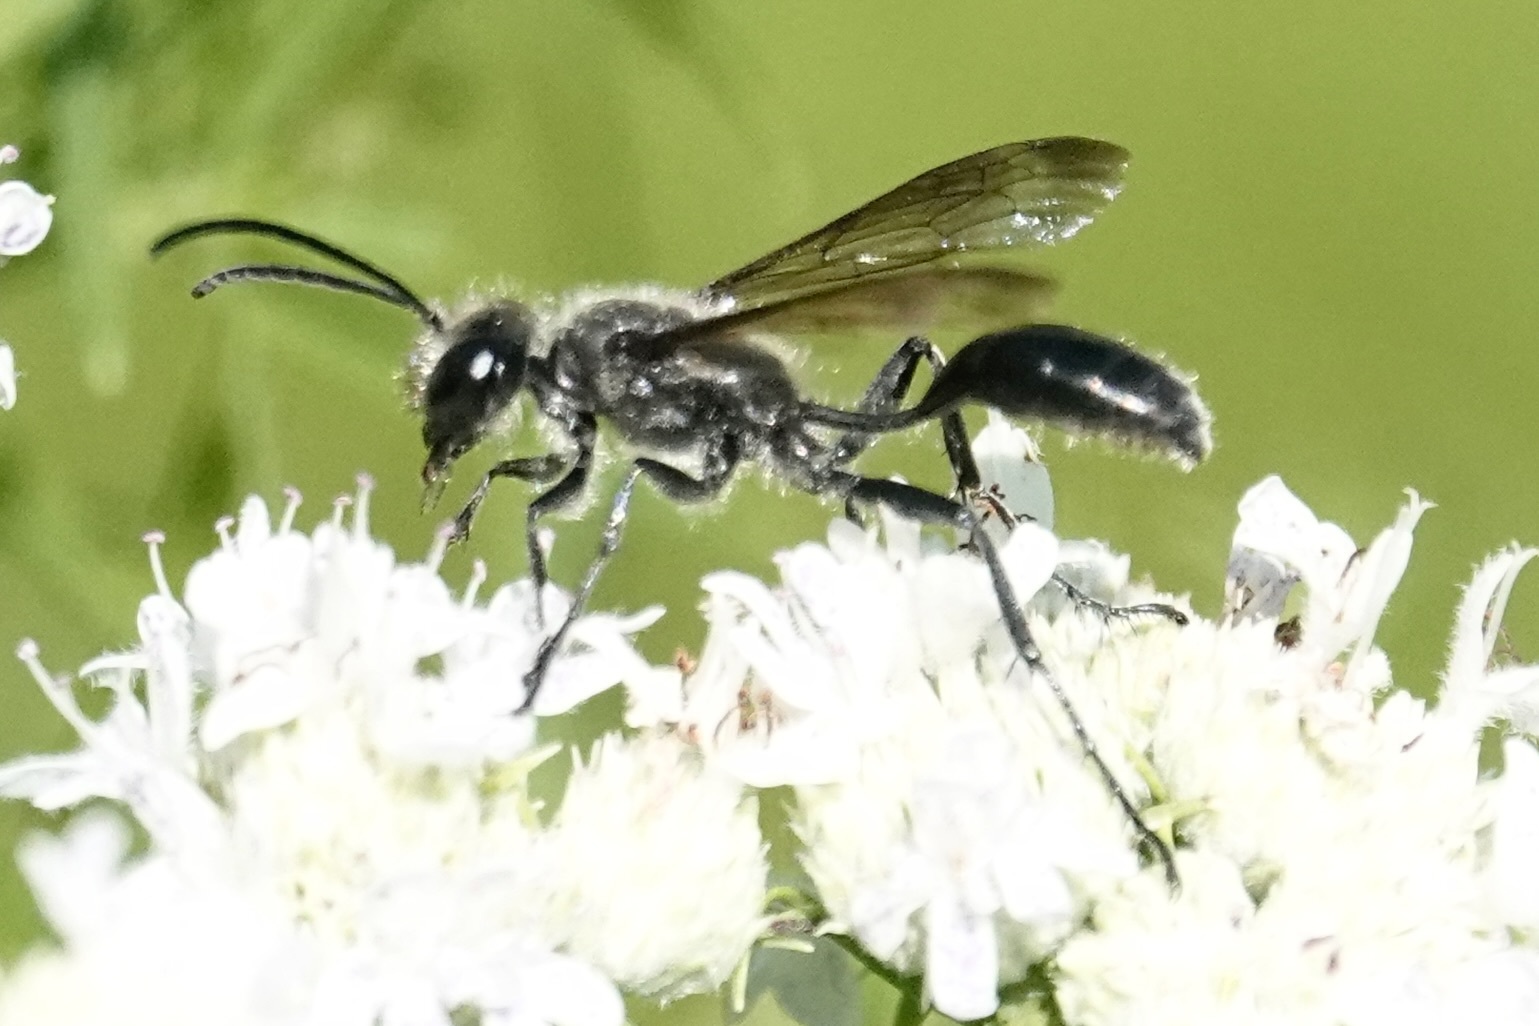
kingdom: Animalia
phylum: Arthropoda
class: Insecta
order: Hymenoptera
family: Sphecidae
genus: Isodontia
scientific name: Isodontia mexicana
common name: Mud dauber
